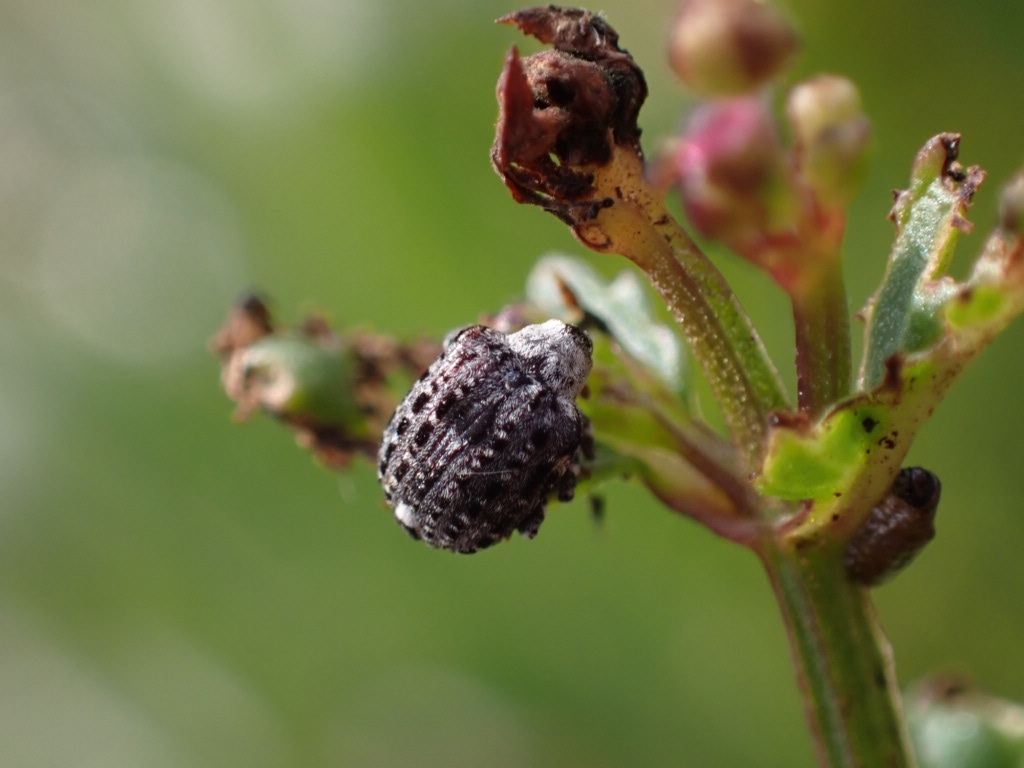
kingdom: Animalia
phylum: Arthropoda
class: Insecta
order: Coleoptera
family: Curculionidae
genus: Cionus
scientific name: Cionus scrophulariae
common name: Common figwort weevil
